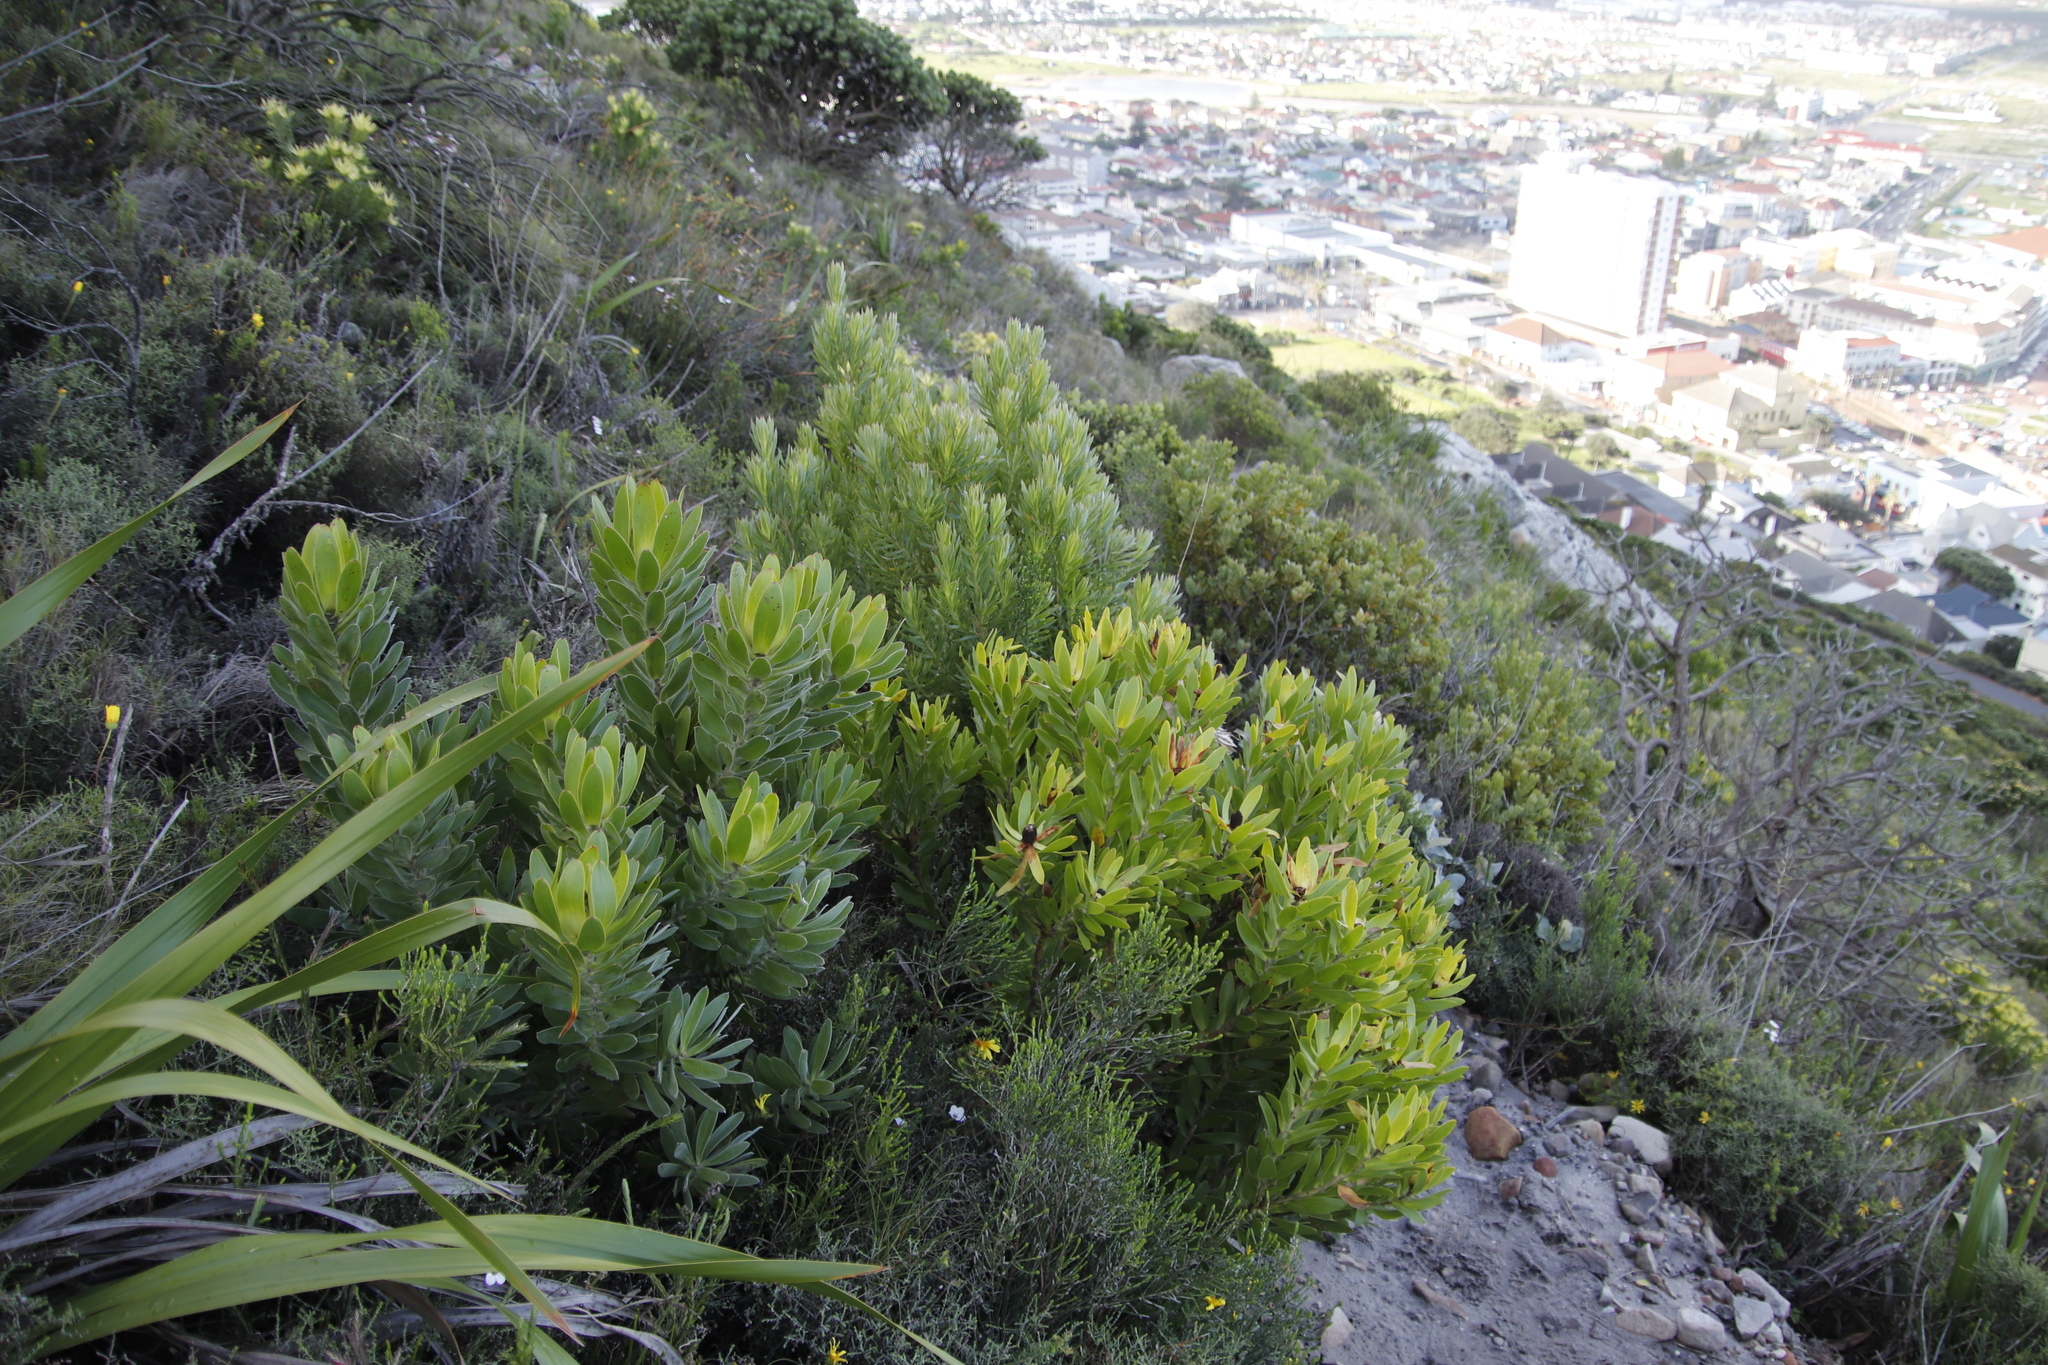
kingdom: Plantae
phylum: Tracheophyta
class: Magnoliopsida
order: Proteales
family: Proteaceae
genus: Leucadendron
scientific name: Leucadendron laureolum
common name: Golden sunshinebush
